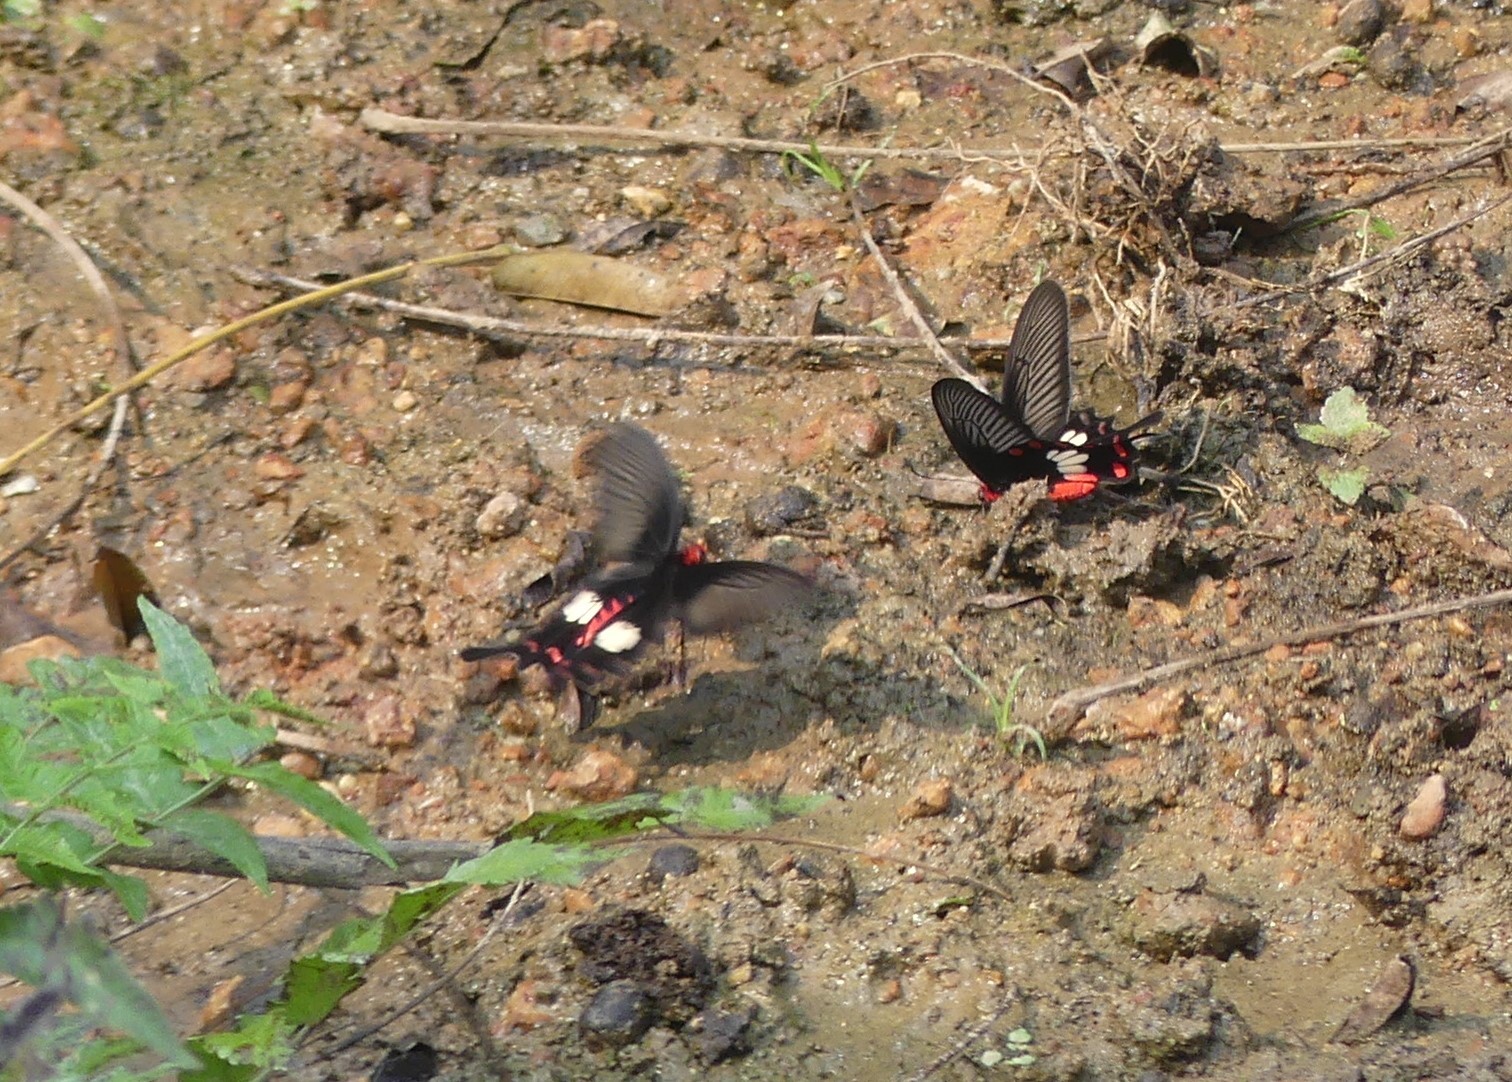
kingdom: Animalia
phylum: Arthropoda
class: Insecta
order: Lepidoptera
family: Papilionidae
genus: Pachliopta
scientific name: Pachliopta aristolochiae
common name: Common rose
